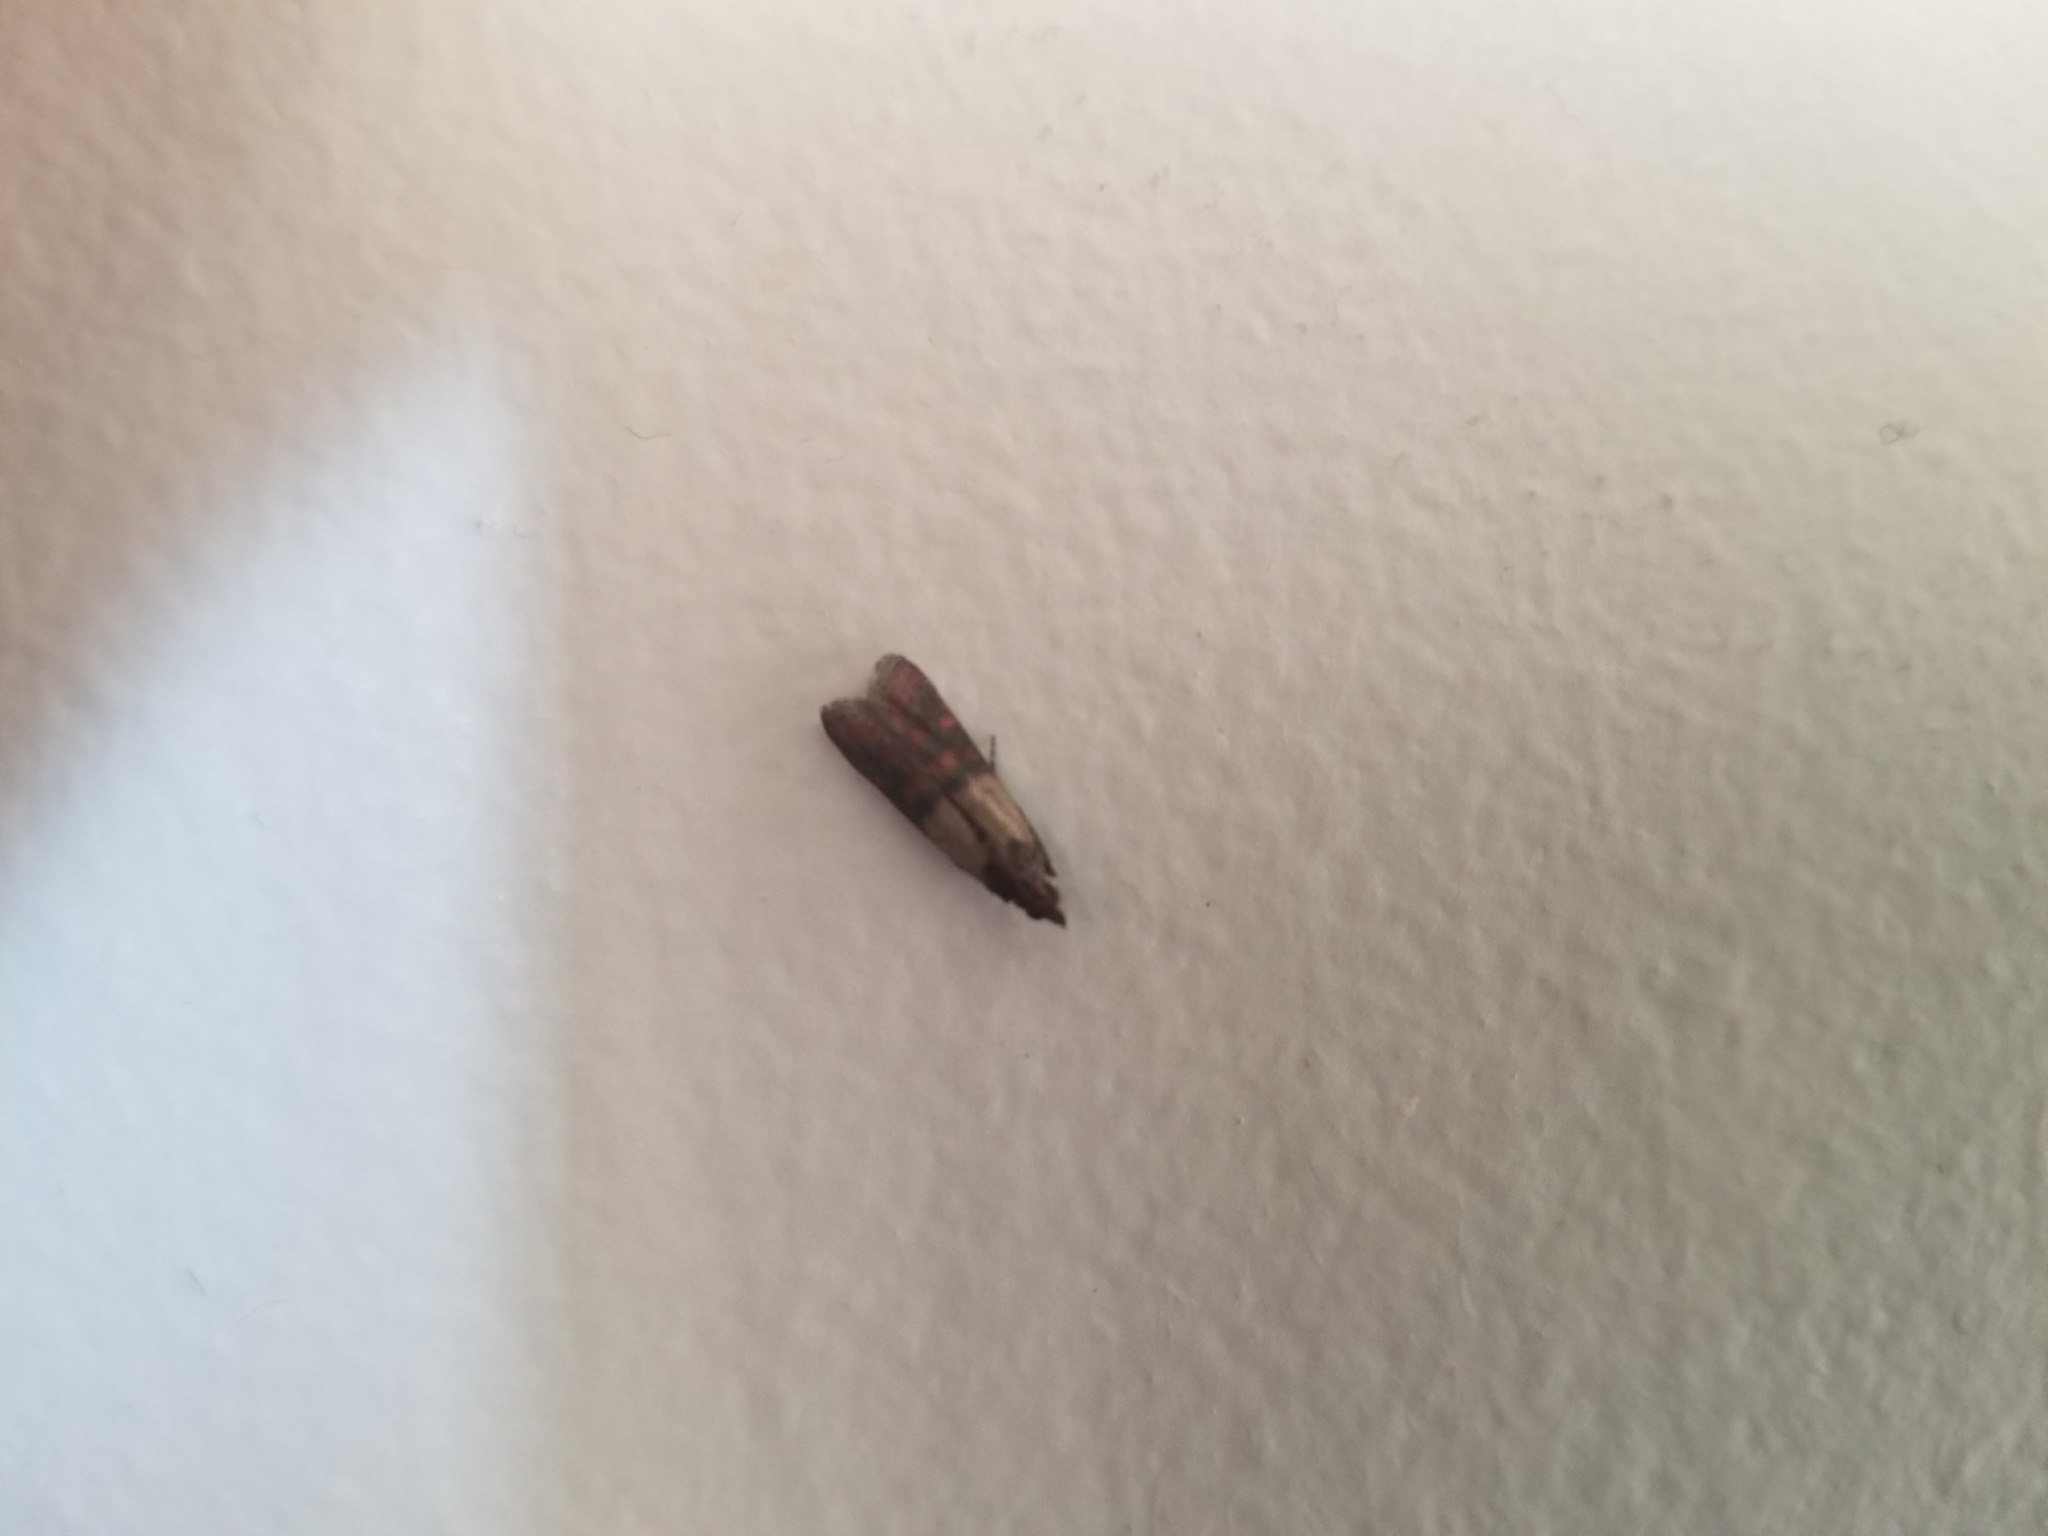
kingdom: Animalia
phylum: Arthropoda
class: Insecta
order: Lepidoptera
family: Pyralidae
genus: Plodia
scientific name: Plodia interpunctella
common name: Indian meal moth
